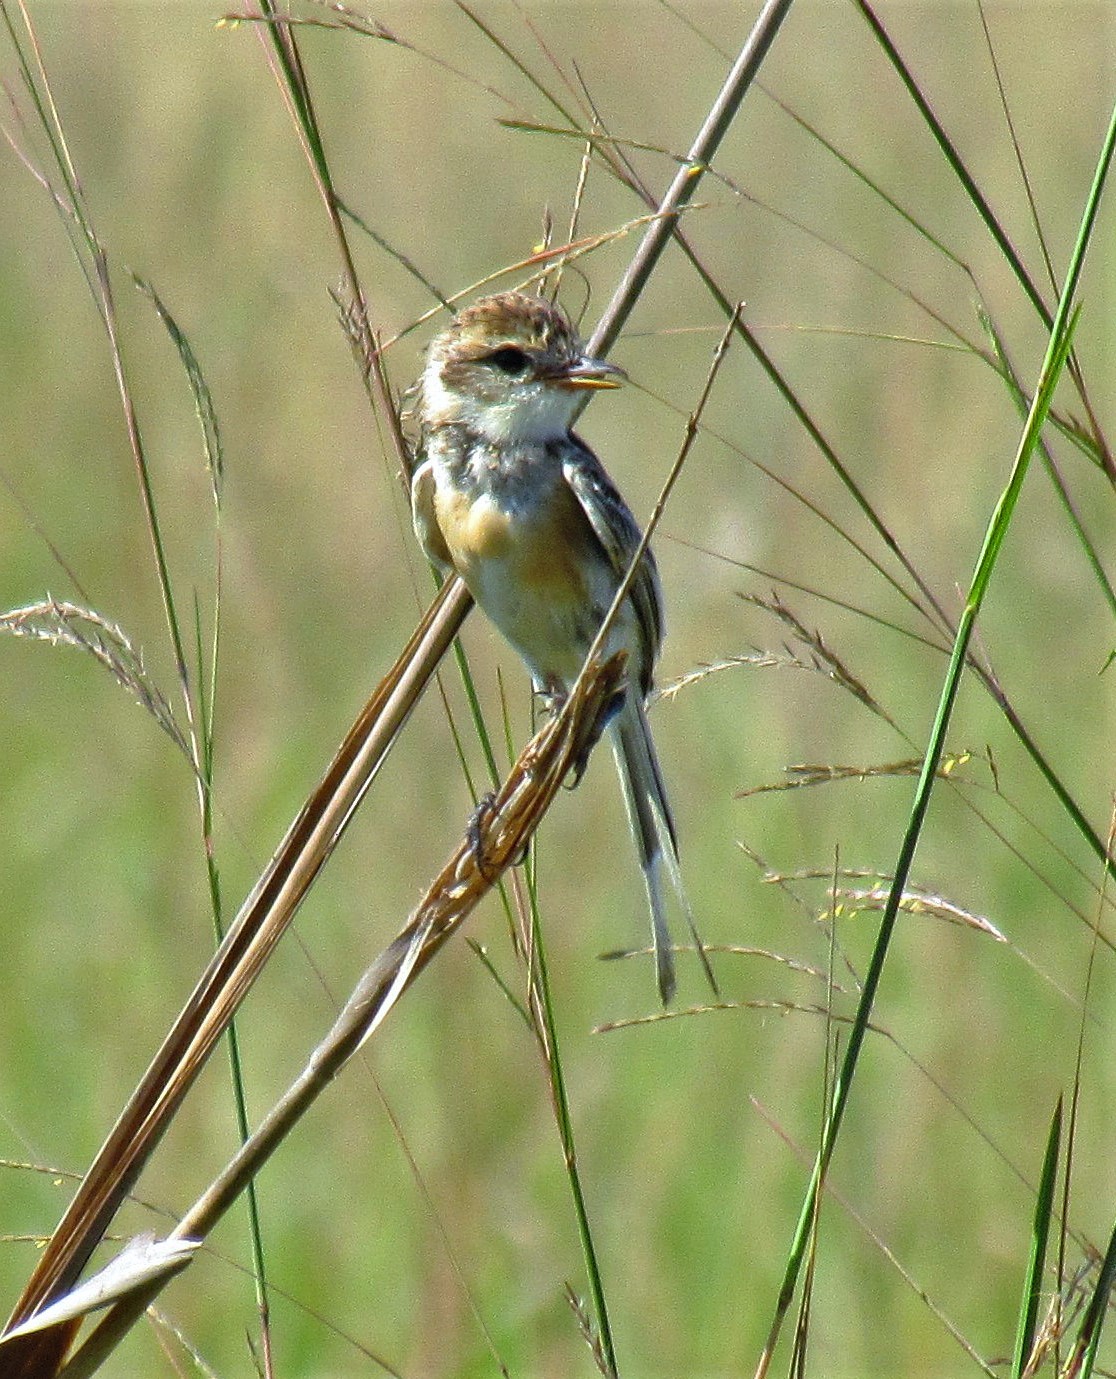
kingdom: Animalia
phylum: Chordata
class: Aves
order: Passeriformes
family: Tyrannidae
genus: Alectrurus
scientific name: Alectrurus risora
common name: Strange-tailed tyrant
